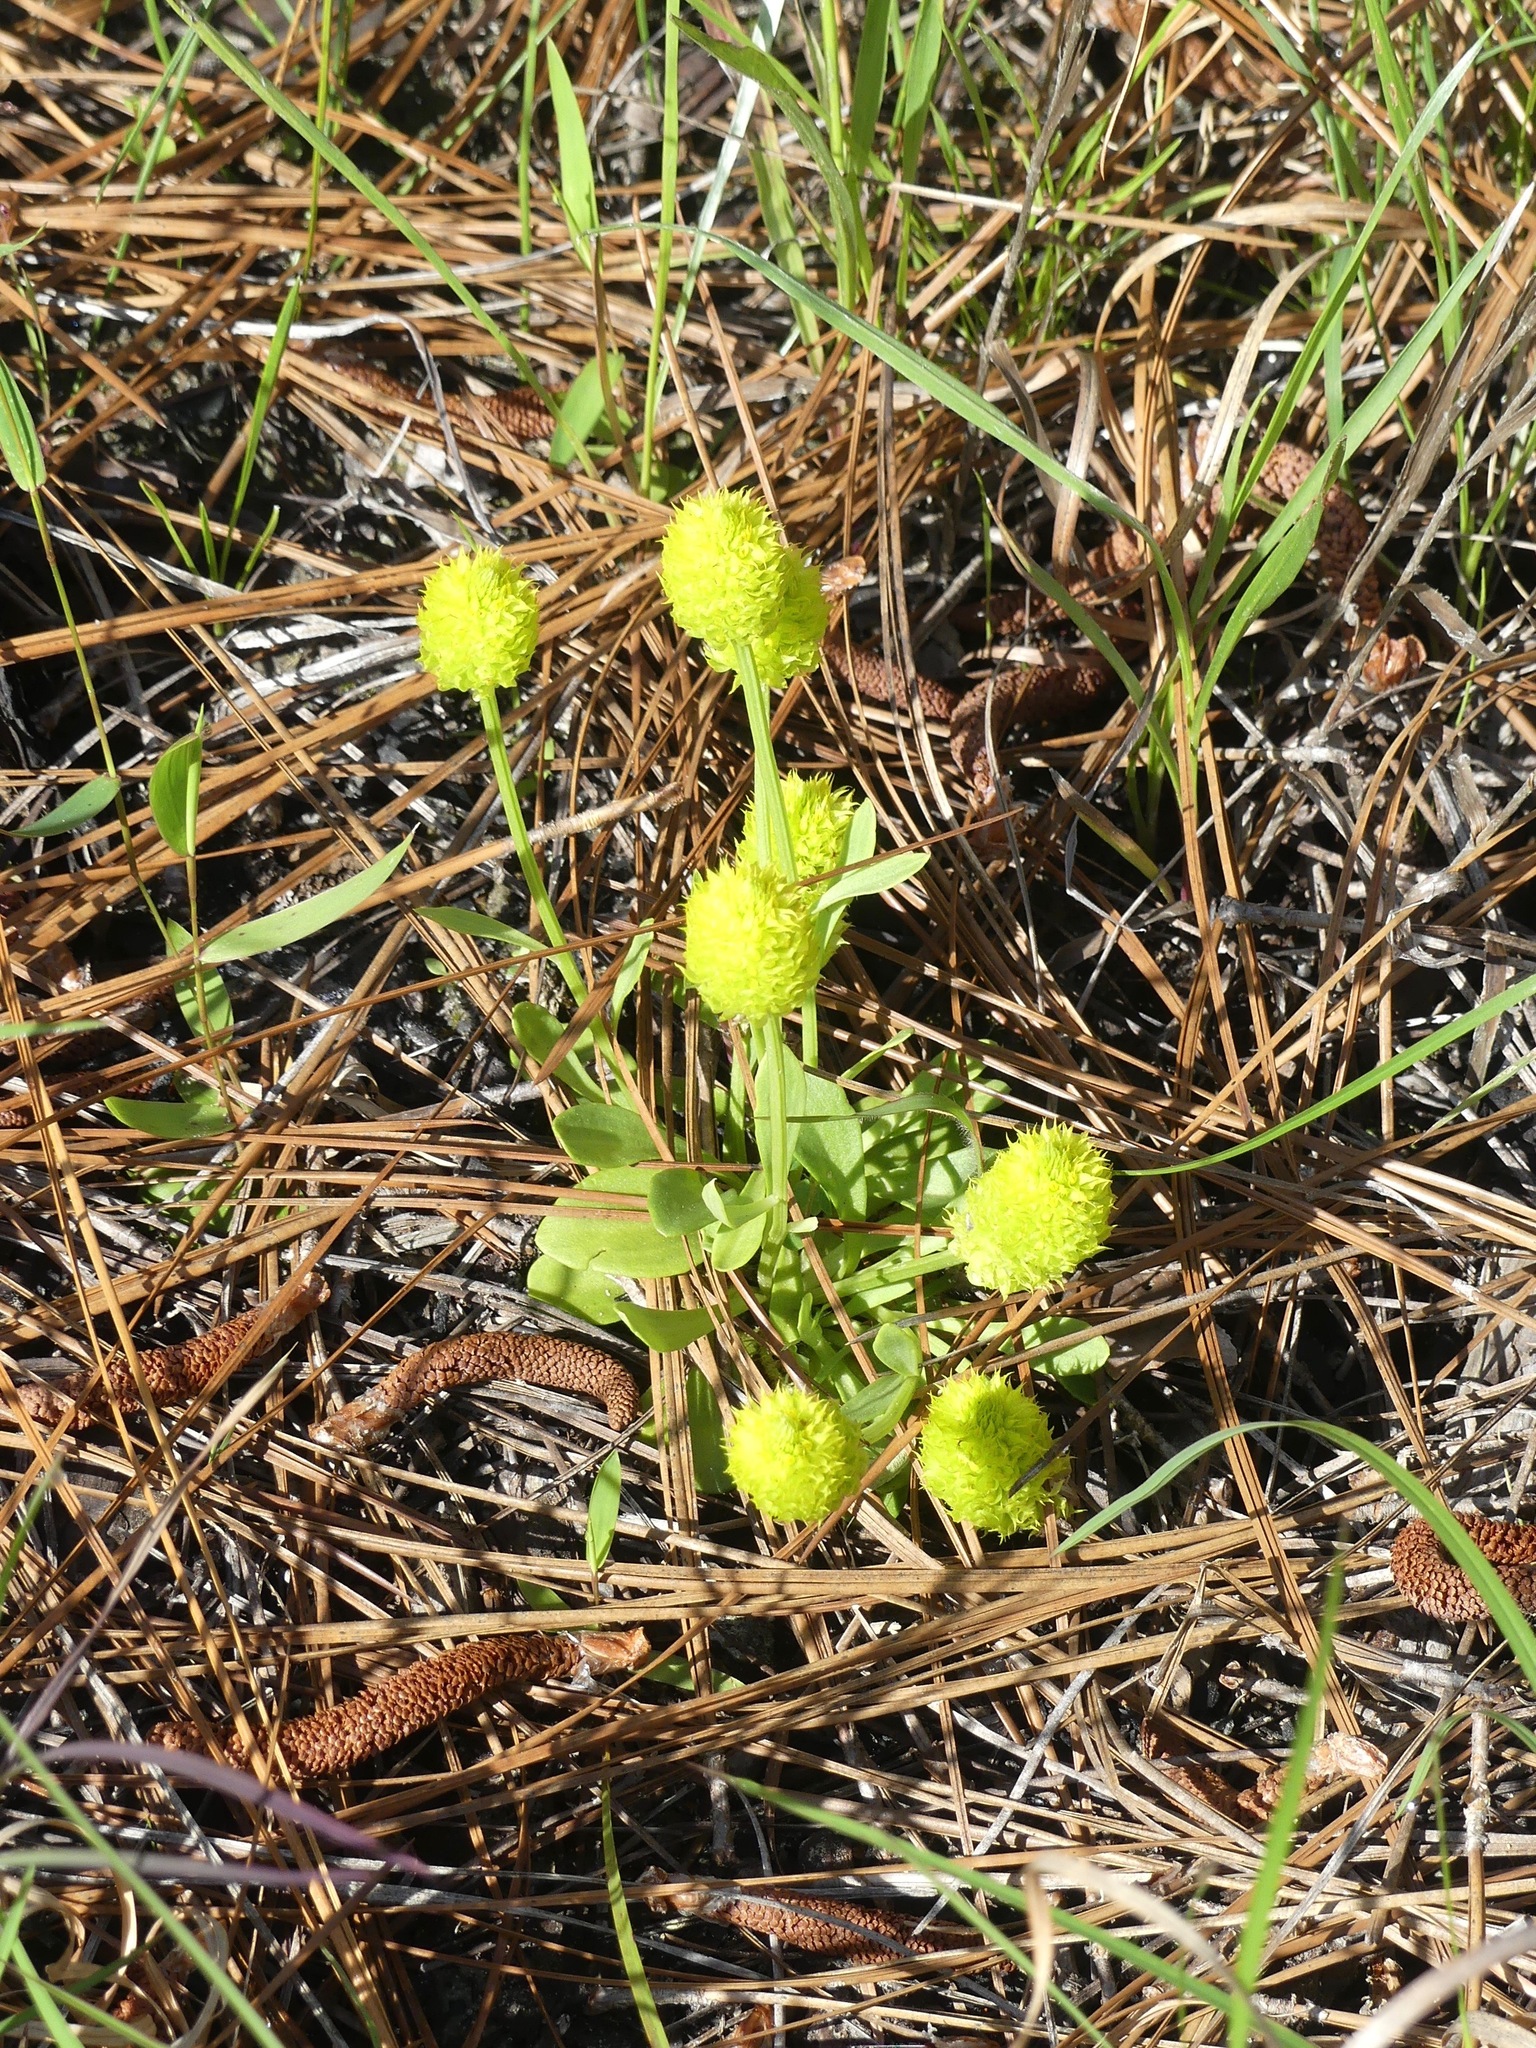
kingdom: Plantae
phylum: Tracheophyta
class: Magnoliopsida
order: Fabales
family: Polygalaceae
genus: Polygala
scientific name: Polygala nana
